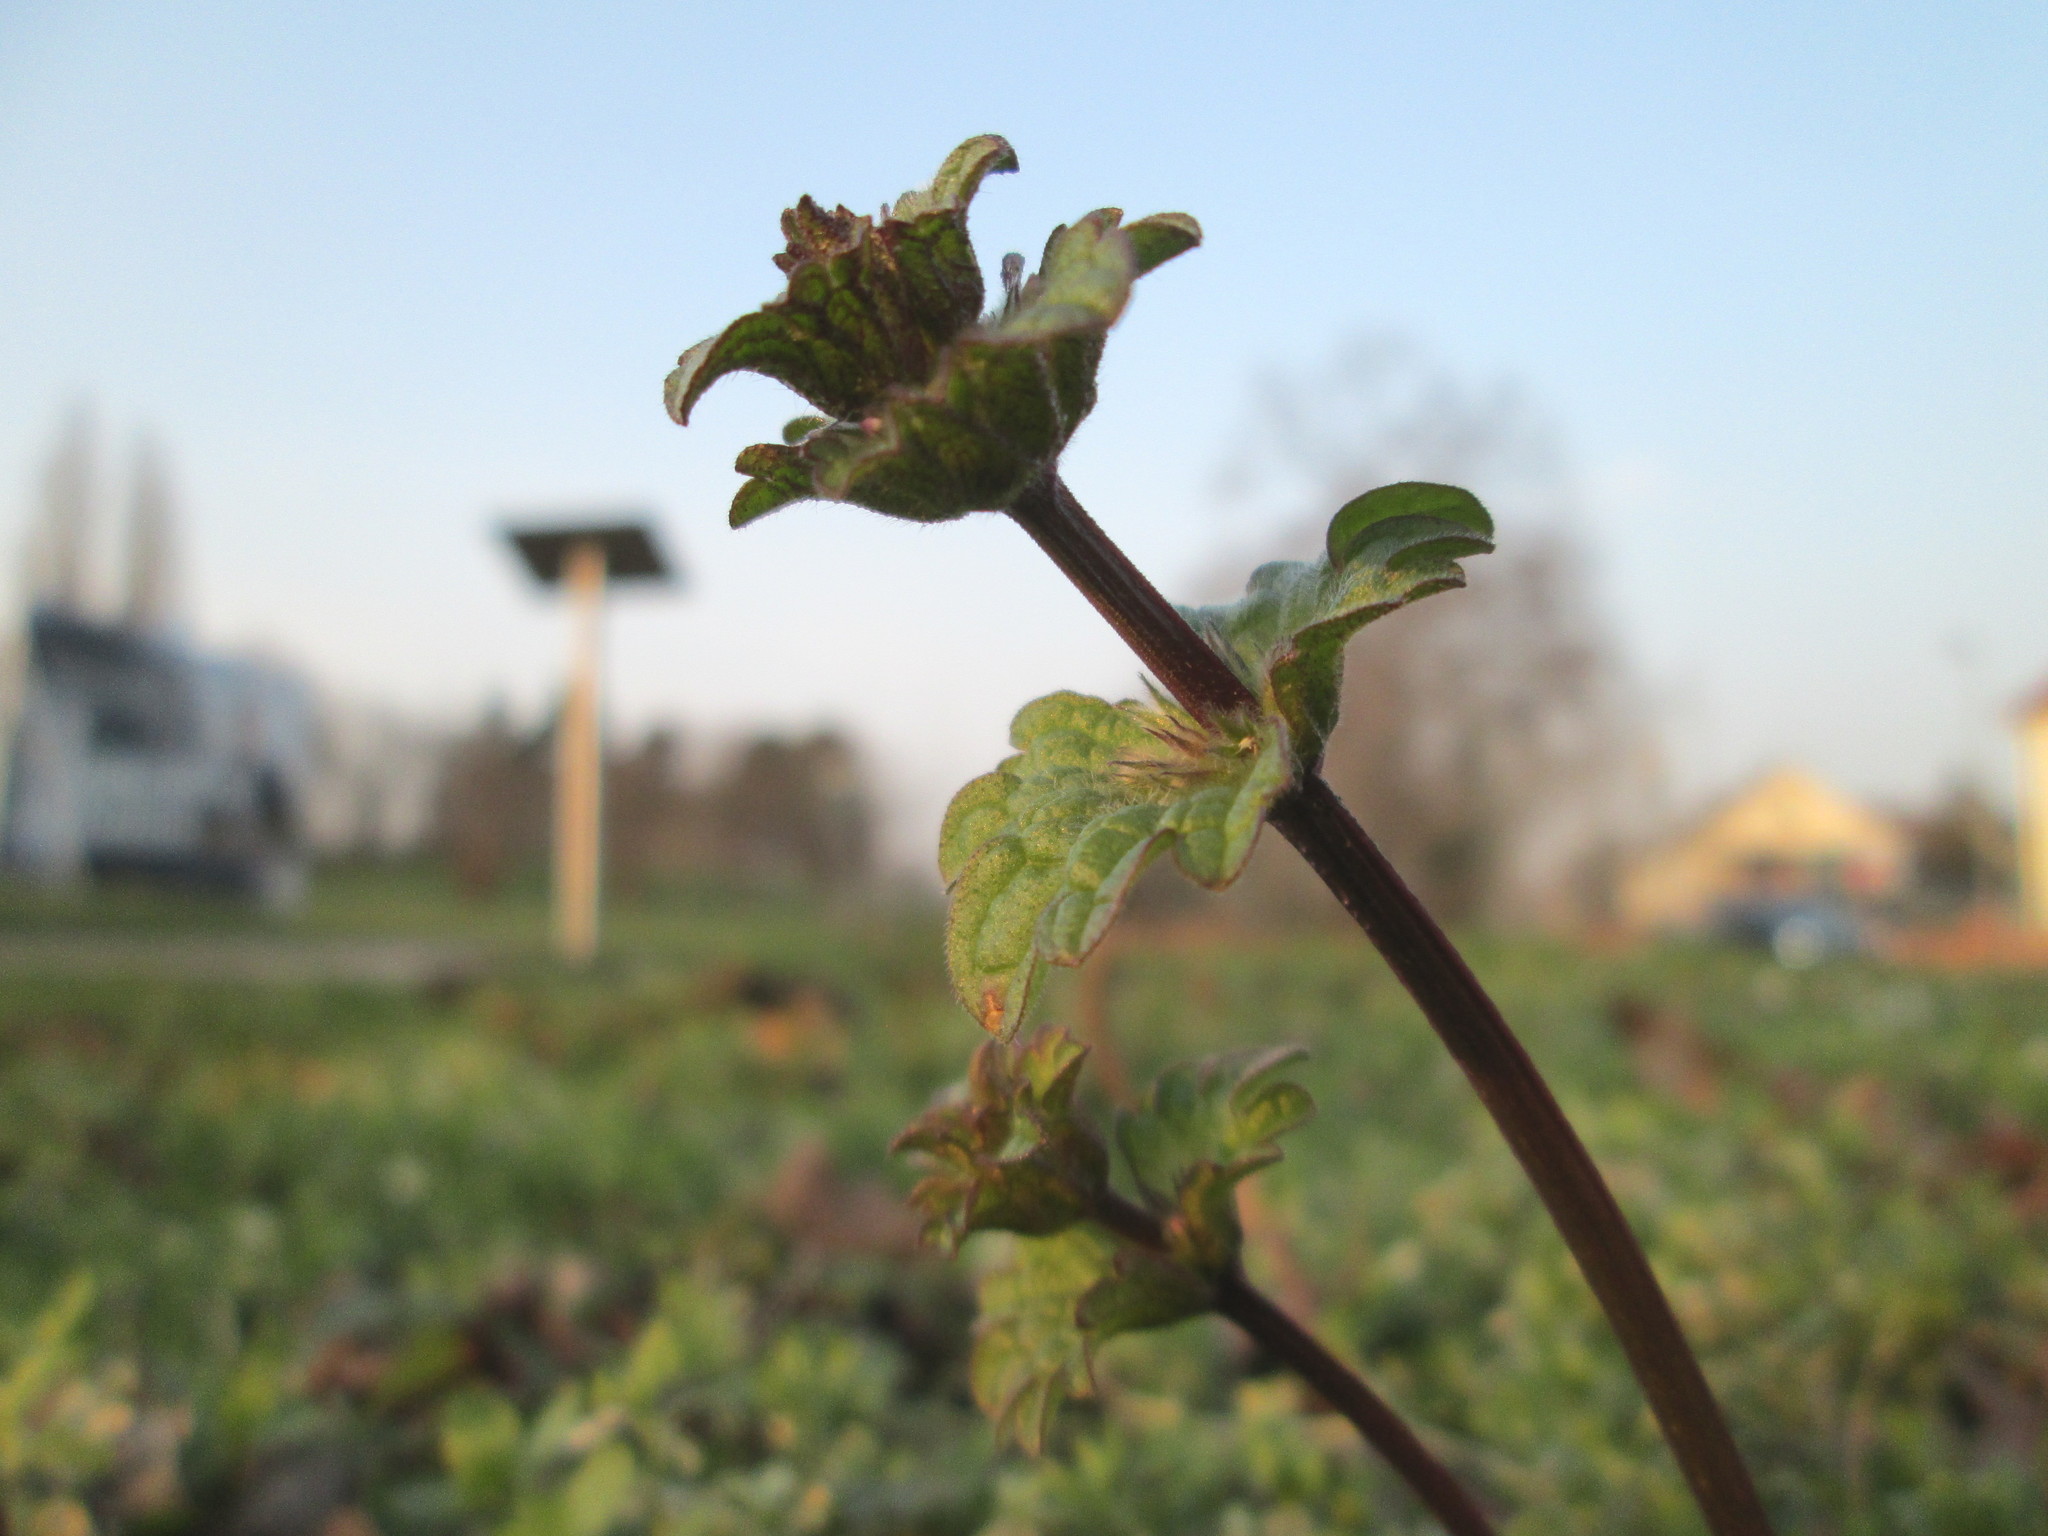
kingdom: Plantae
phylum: Tracheophyta
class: Magnoliopsida
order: Lamiales
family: Lamiaceae
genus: Lamium
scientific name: Lamium amplexicaule
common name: Henbit dead-nettle
